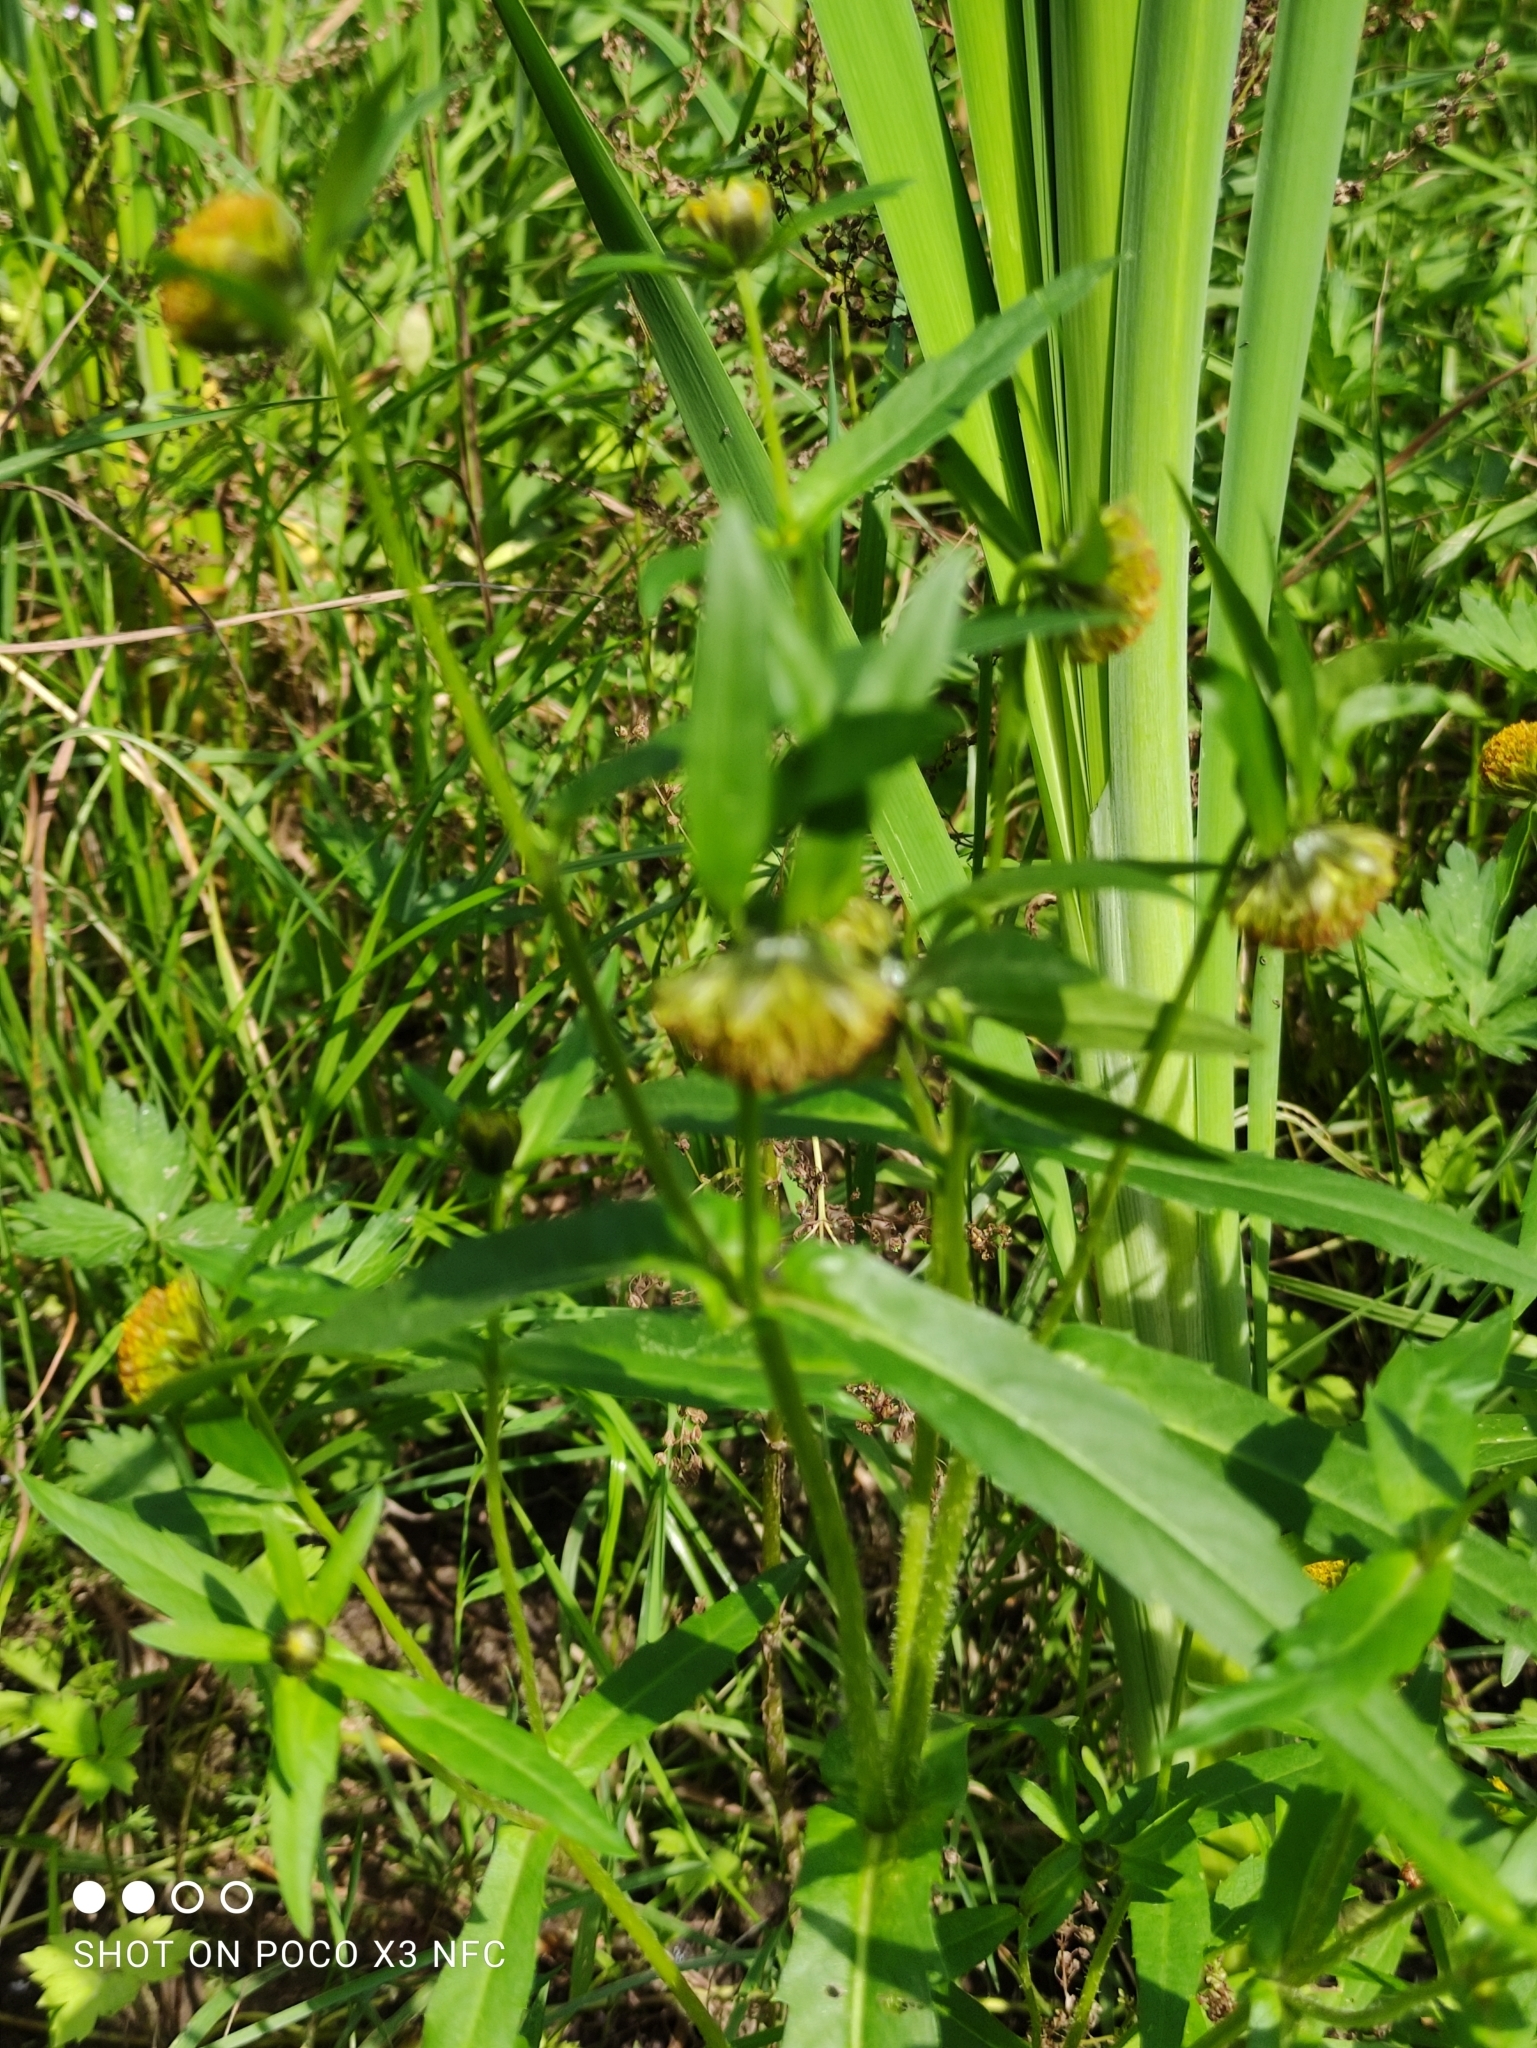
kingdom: Plantae
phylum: Tracheophyta
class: Magnoliopsida
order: Asterales
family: Asteraceae
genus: Bidens
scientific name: Bidens cernua
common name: Nodding bur-marigold
